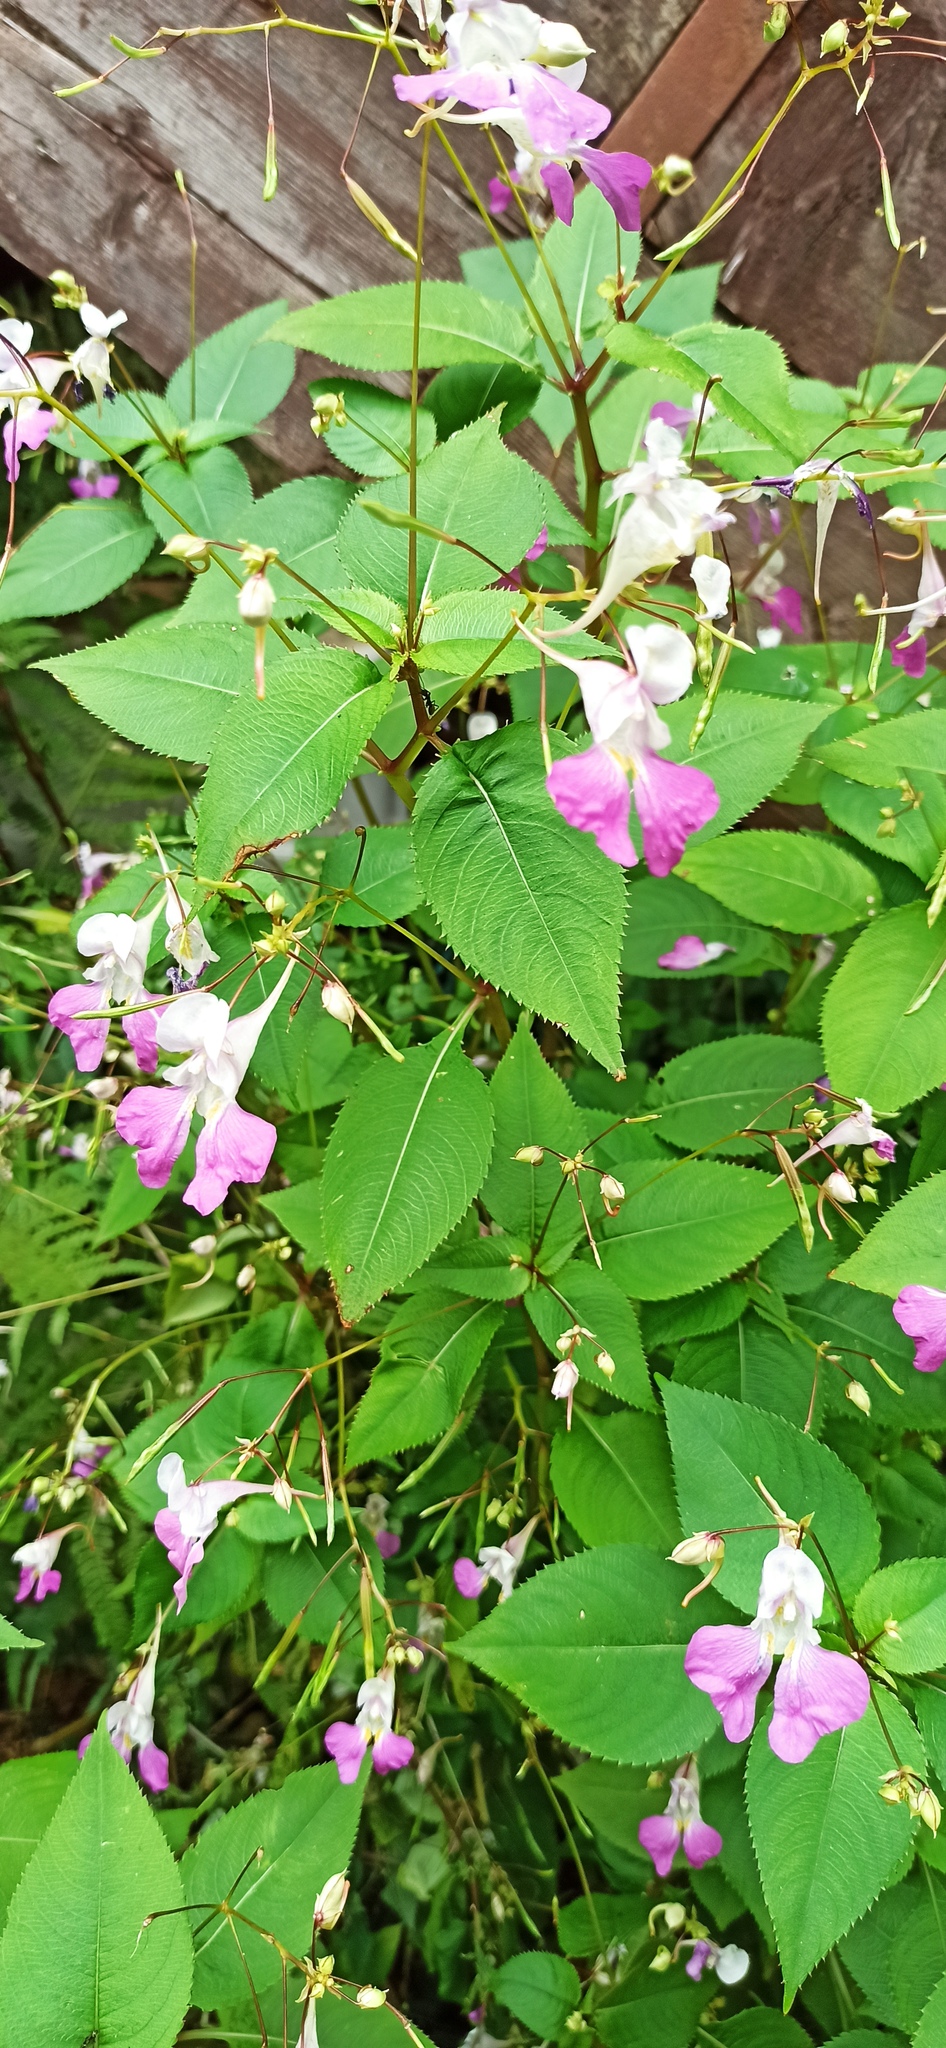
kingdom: Plantae
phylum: Tracheophyta
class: Magnoliopsida
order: Ericales
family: Balsaminaceae
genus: Impatiens
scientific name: Impatiens balfourii
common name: Balfour's touch-me-not
